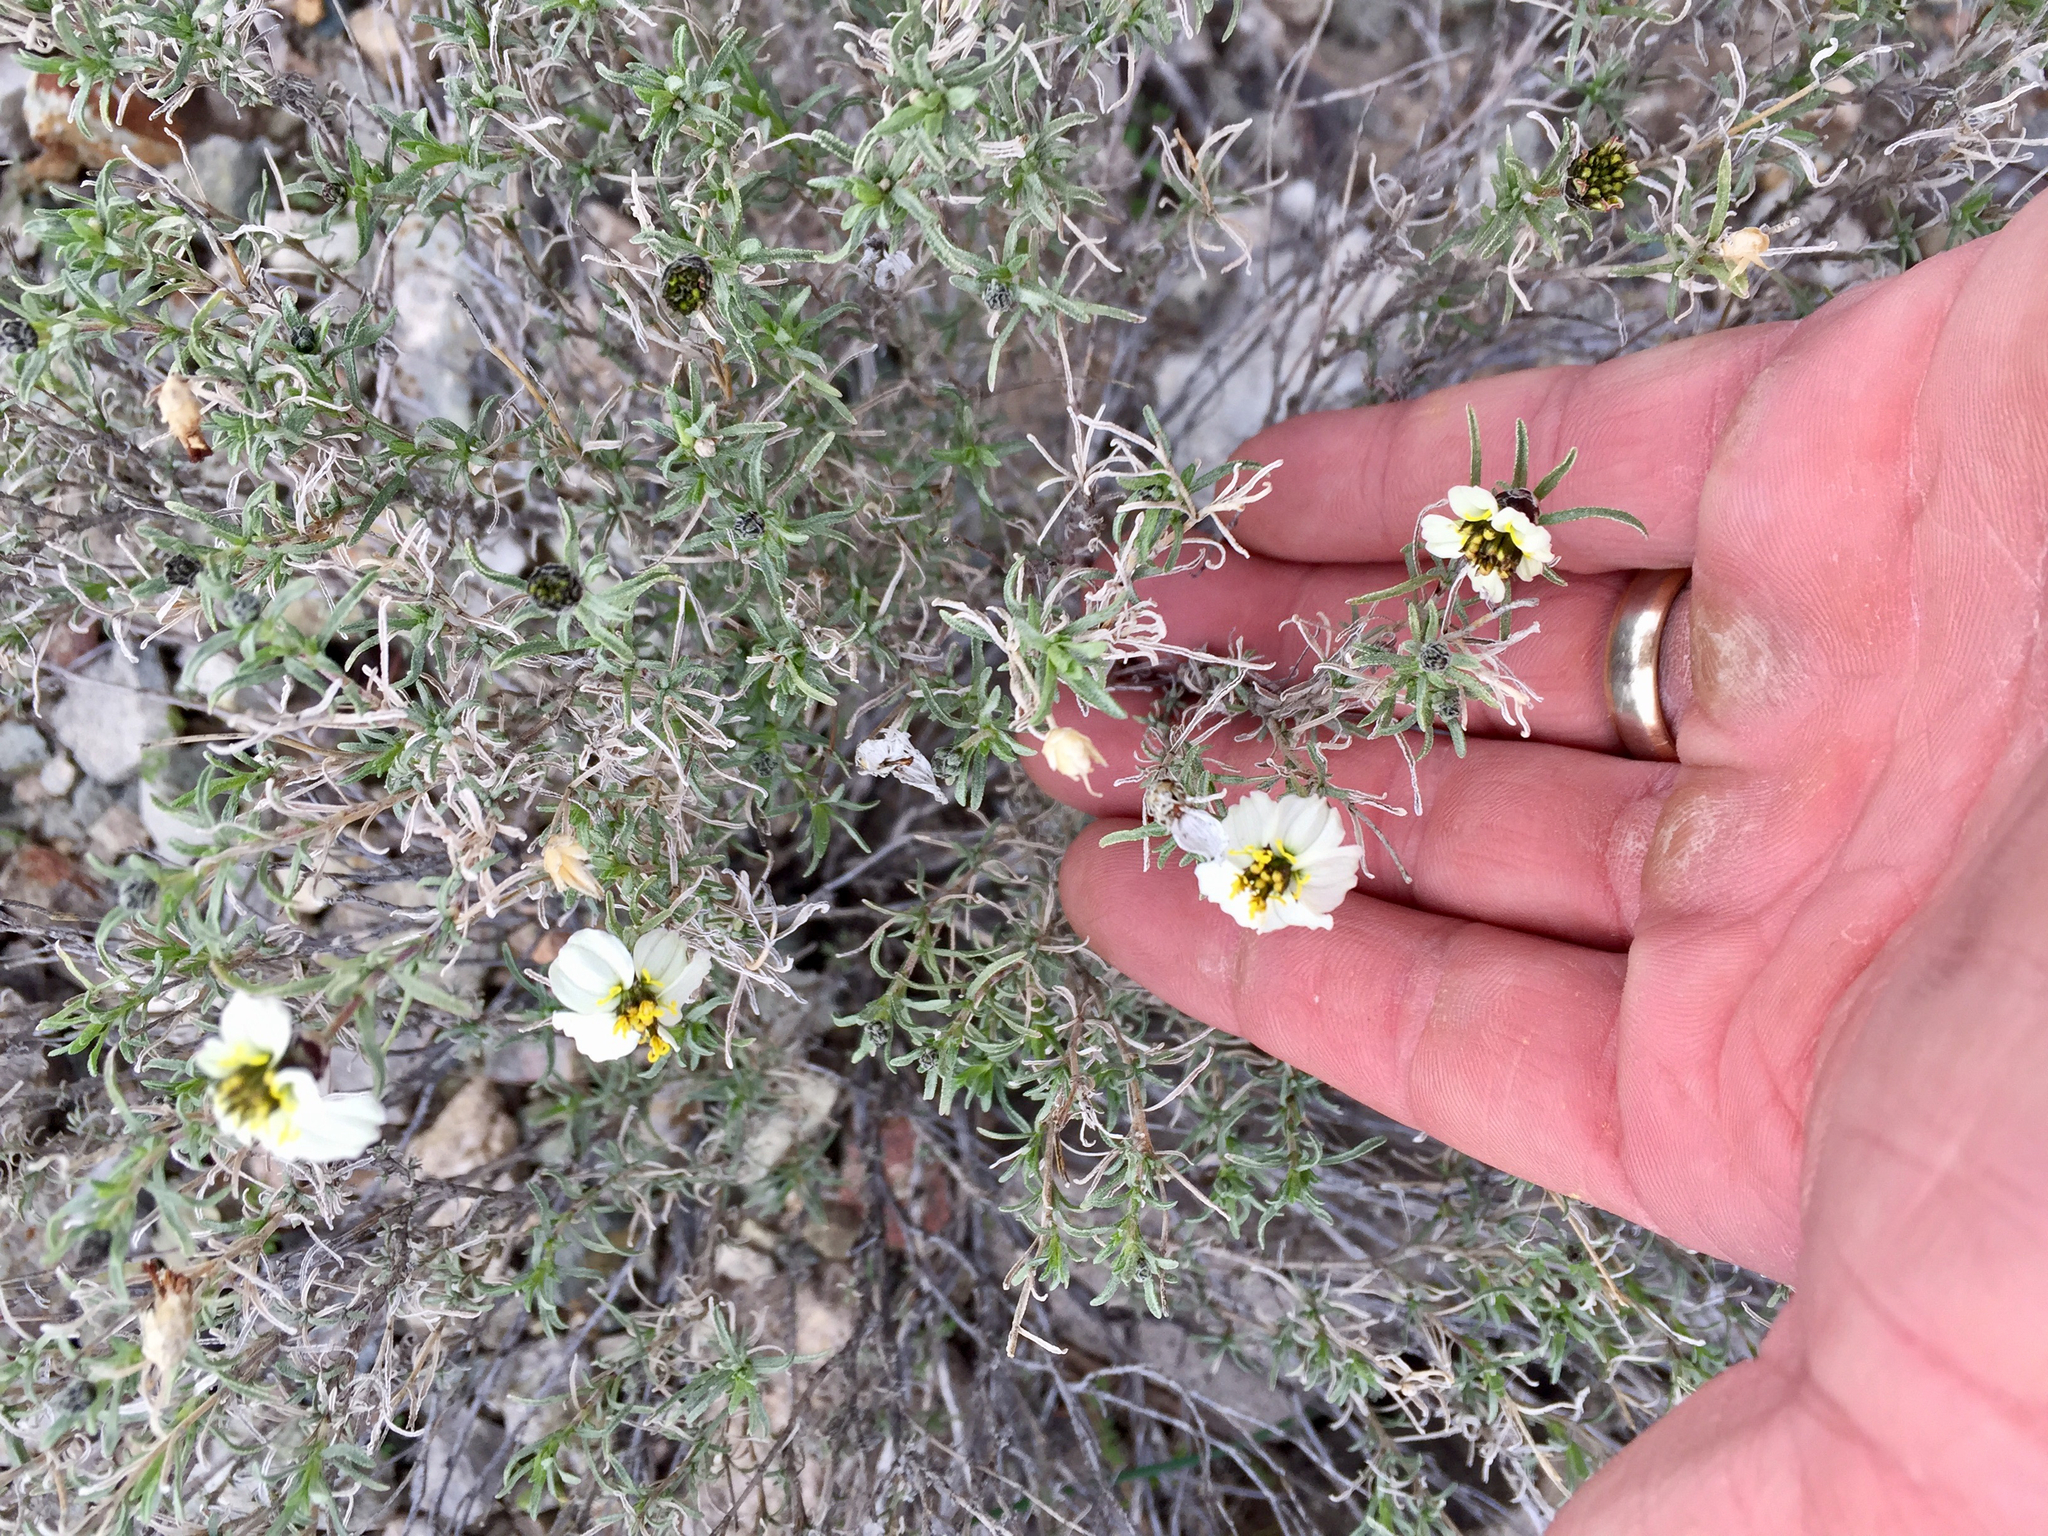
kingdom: Plantae
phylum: Tracheophyta
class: Magnoliopsida
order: Asterales
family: Asteraceae
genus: Zinnia
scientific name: Zinnia acerosa
